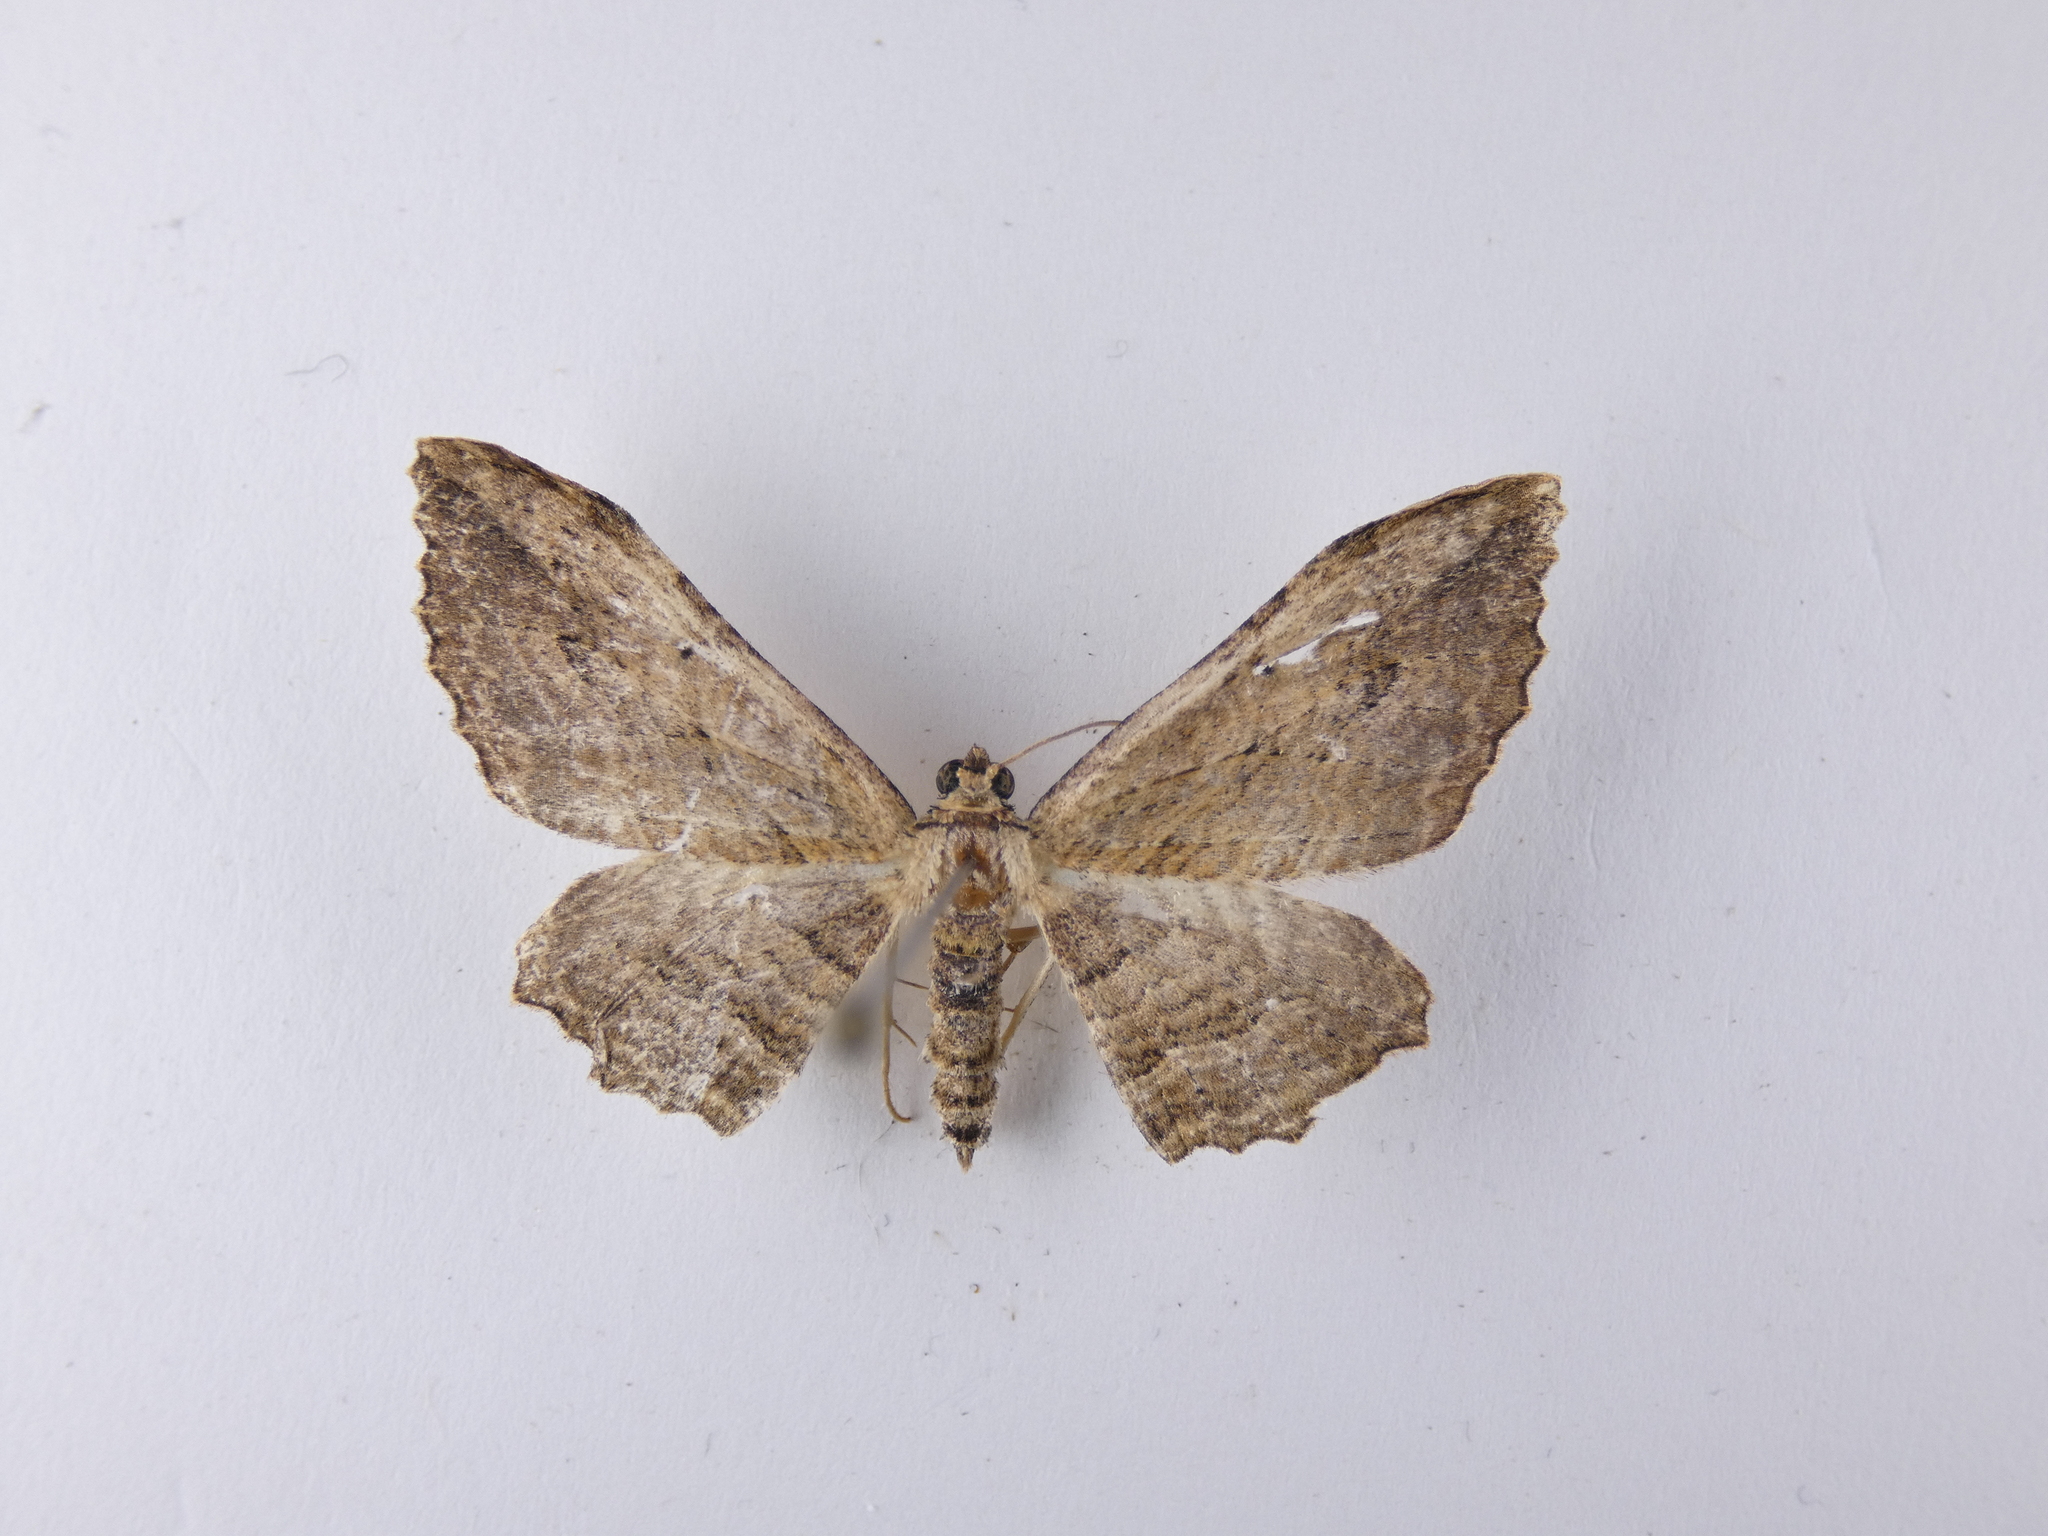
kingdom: Animalia
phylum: Arthropoda
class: Insecta
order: Lepidoptera
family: Geometridae
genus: Austrocidaria
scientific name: Austrocidaria bipartita
